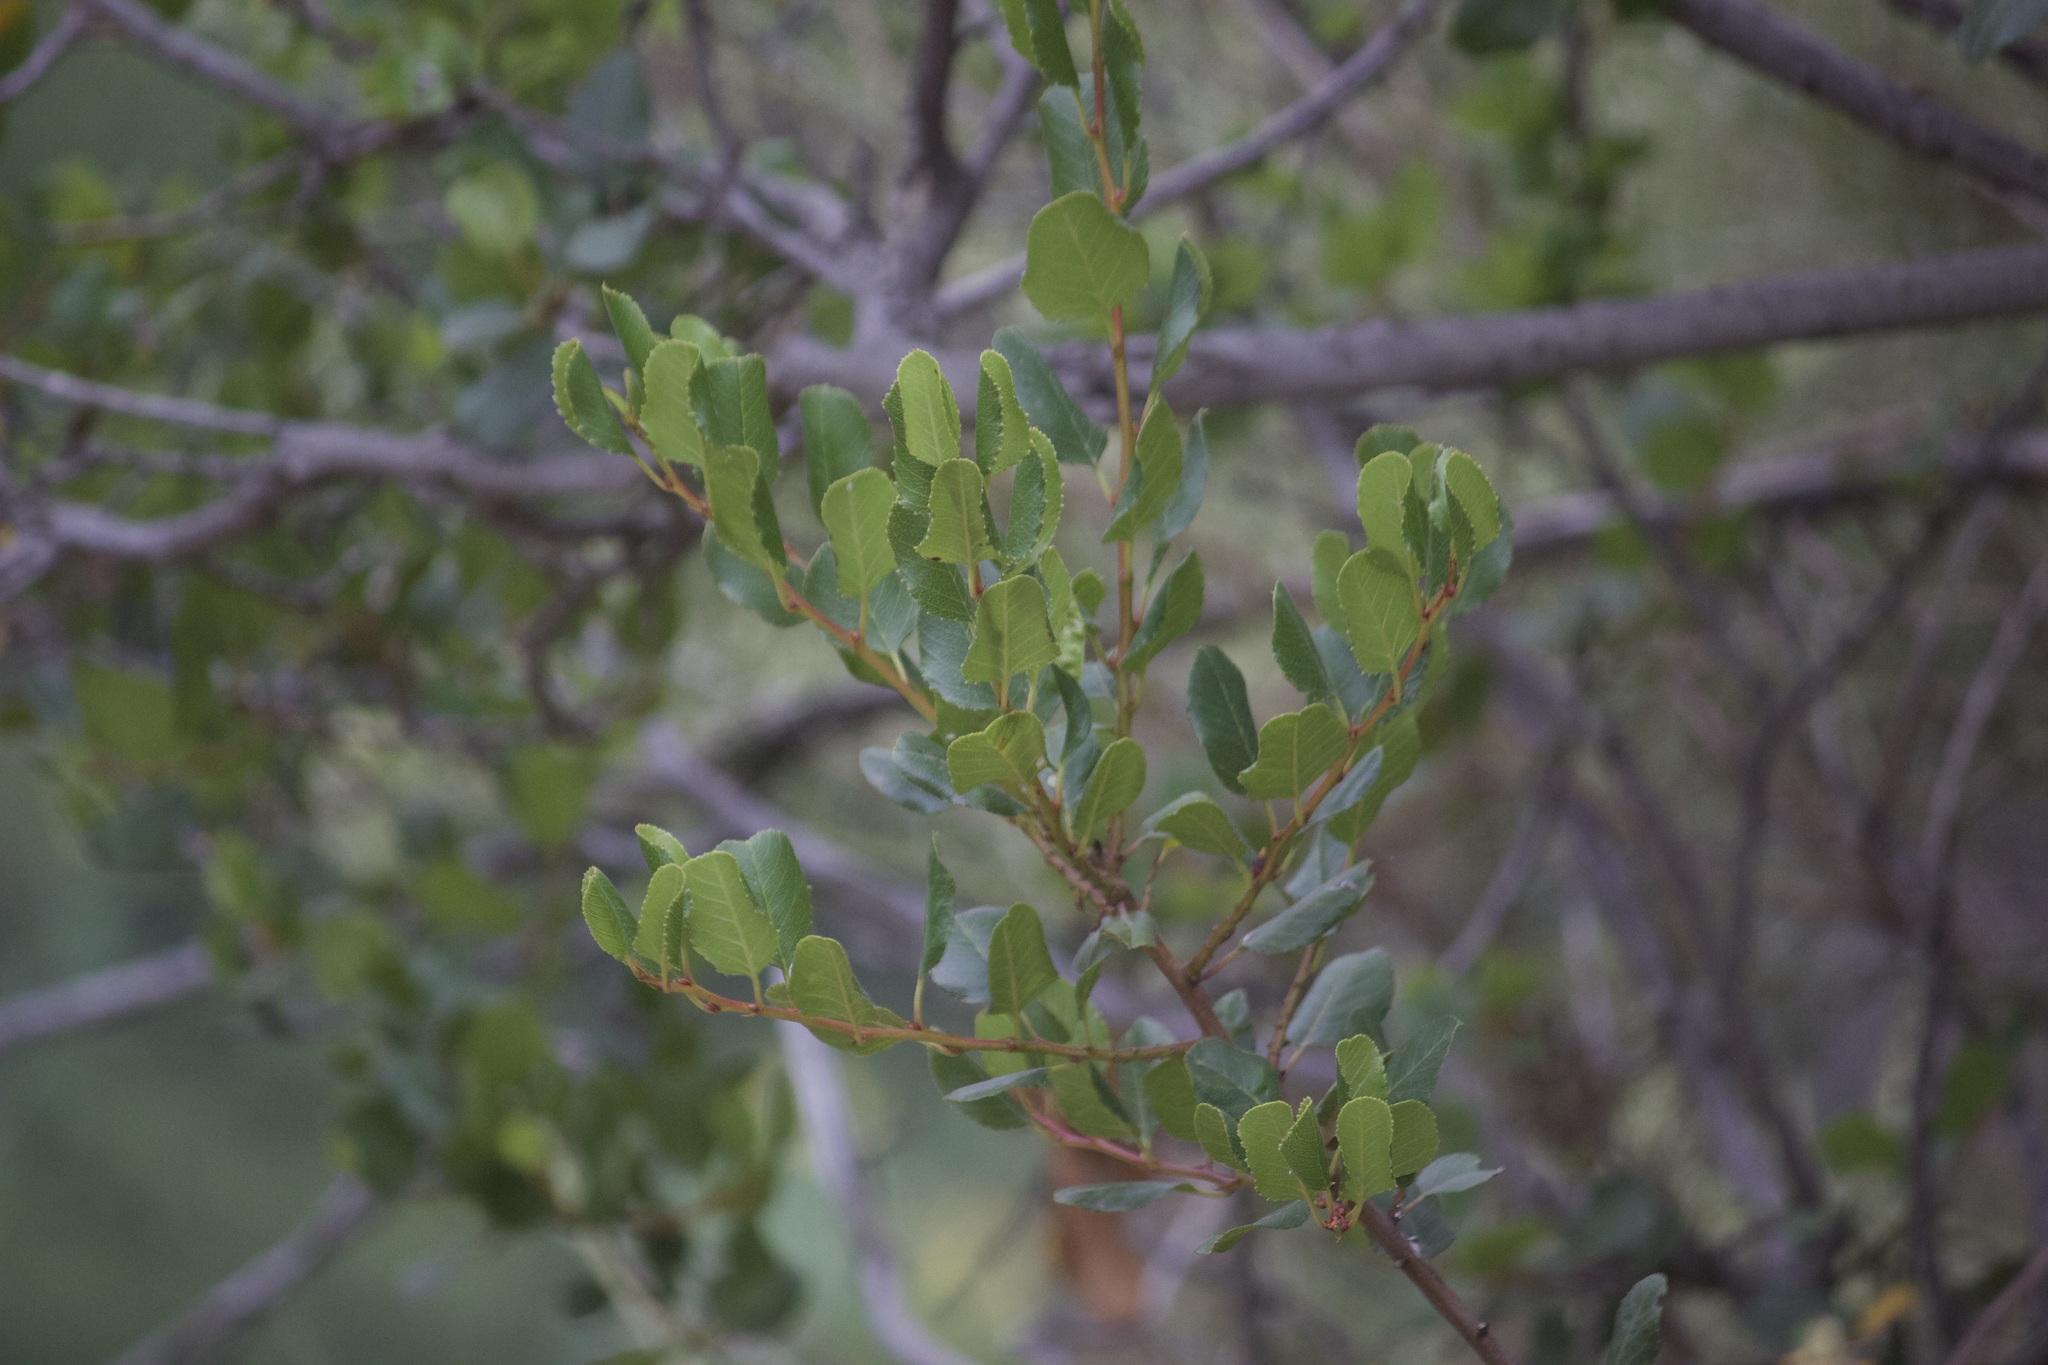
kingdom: Plantae
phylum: Tracheophyta
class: Magnoliopsida
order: Rosales
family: Rhamnaceae
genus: Endotropis
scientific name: Endotropis crocea
